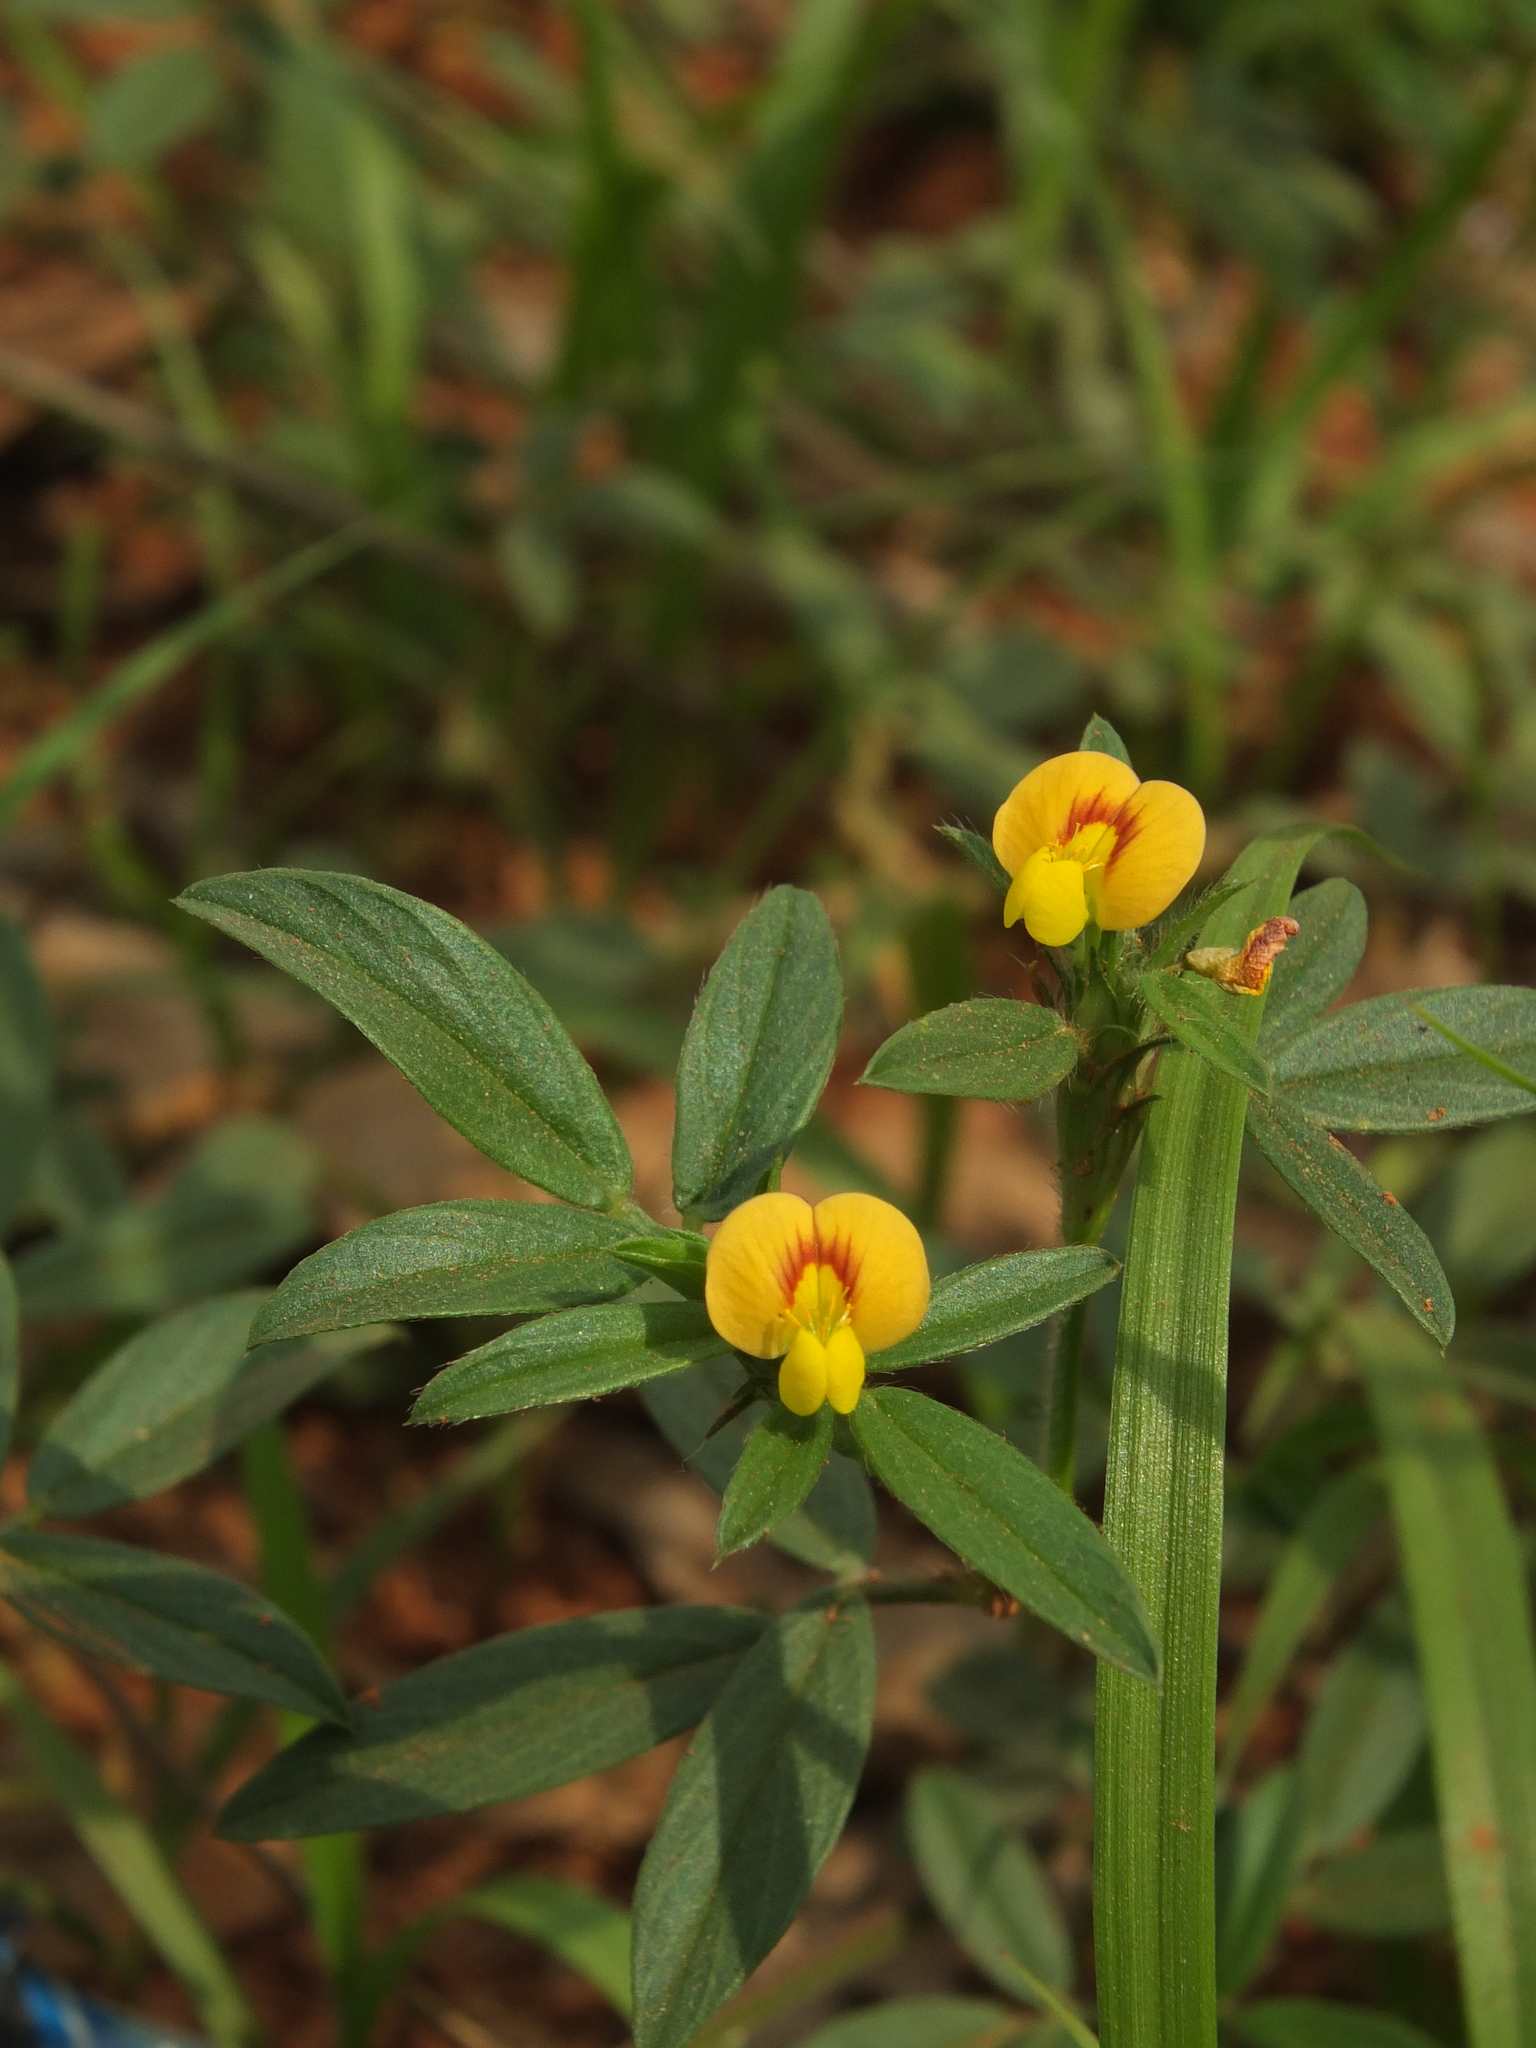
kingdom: Plantae
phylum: Tracheophyta
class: Magnoliopsida
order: Fabales
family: Fabaceae
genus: Stylosanthes
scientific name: Stylosanthes guianensis
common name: Pencil flower
